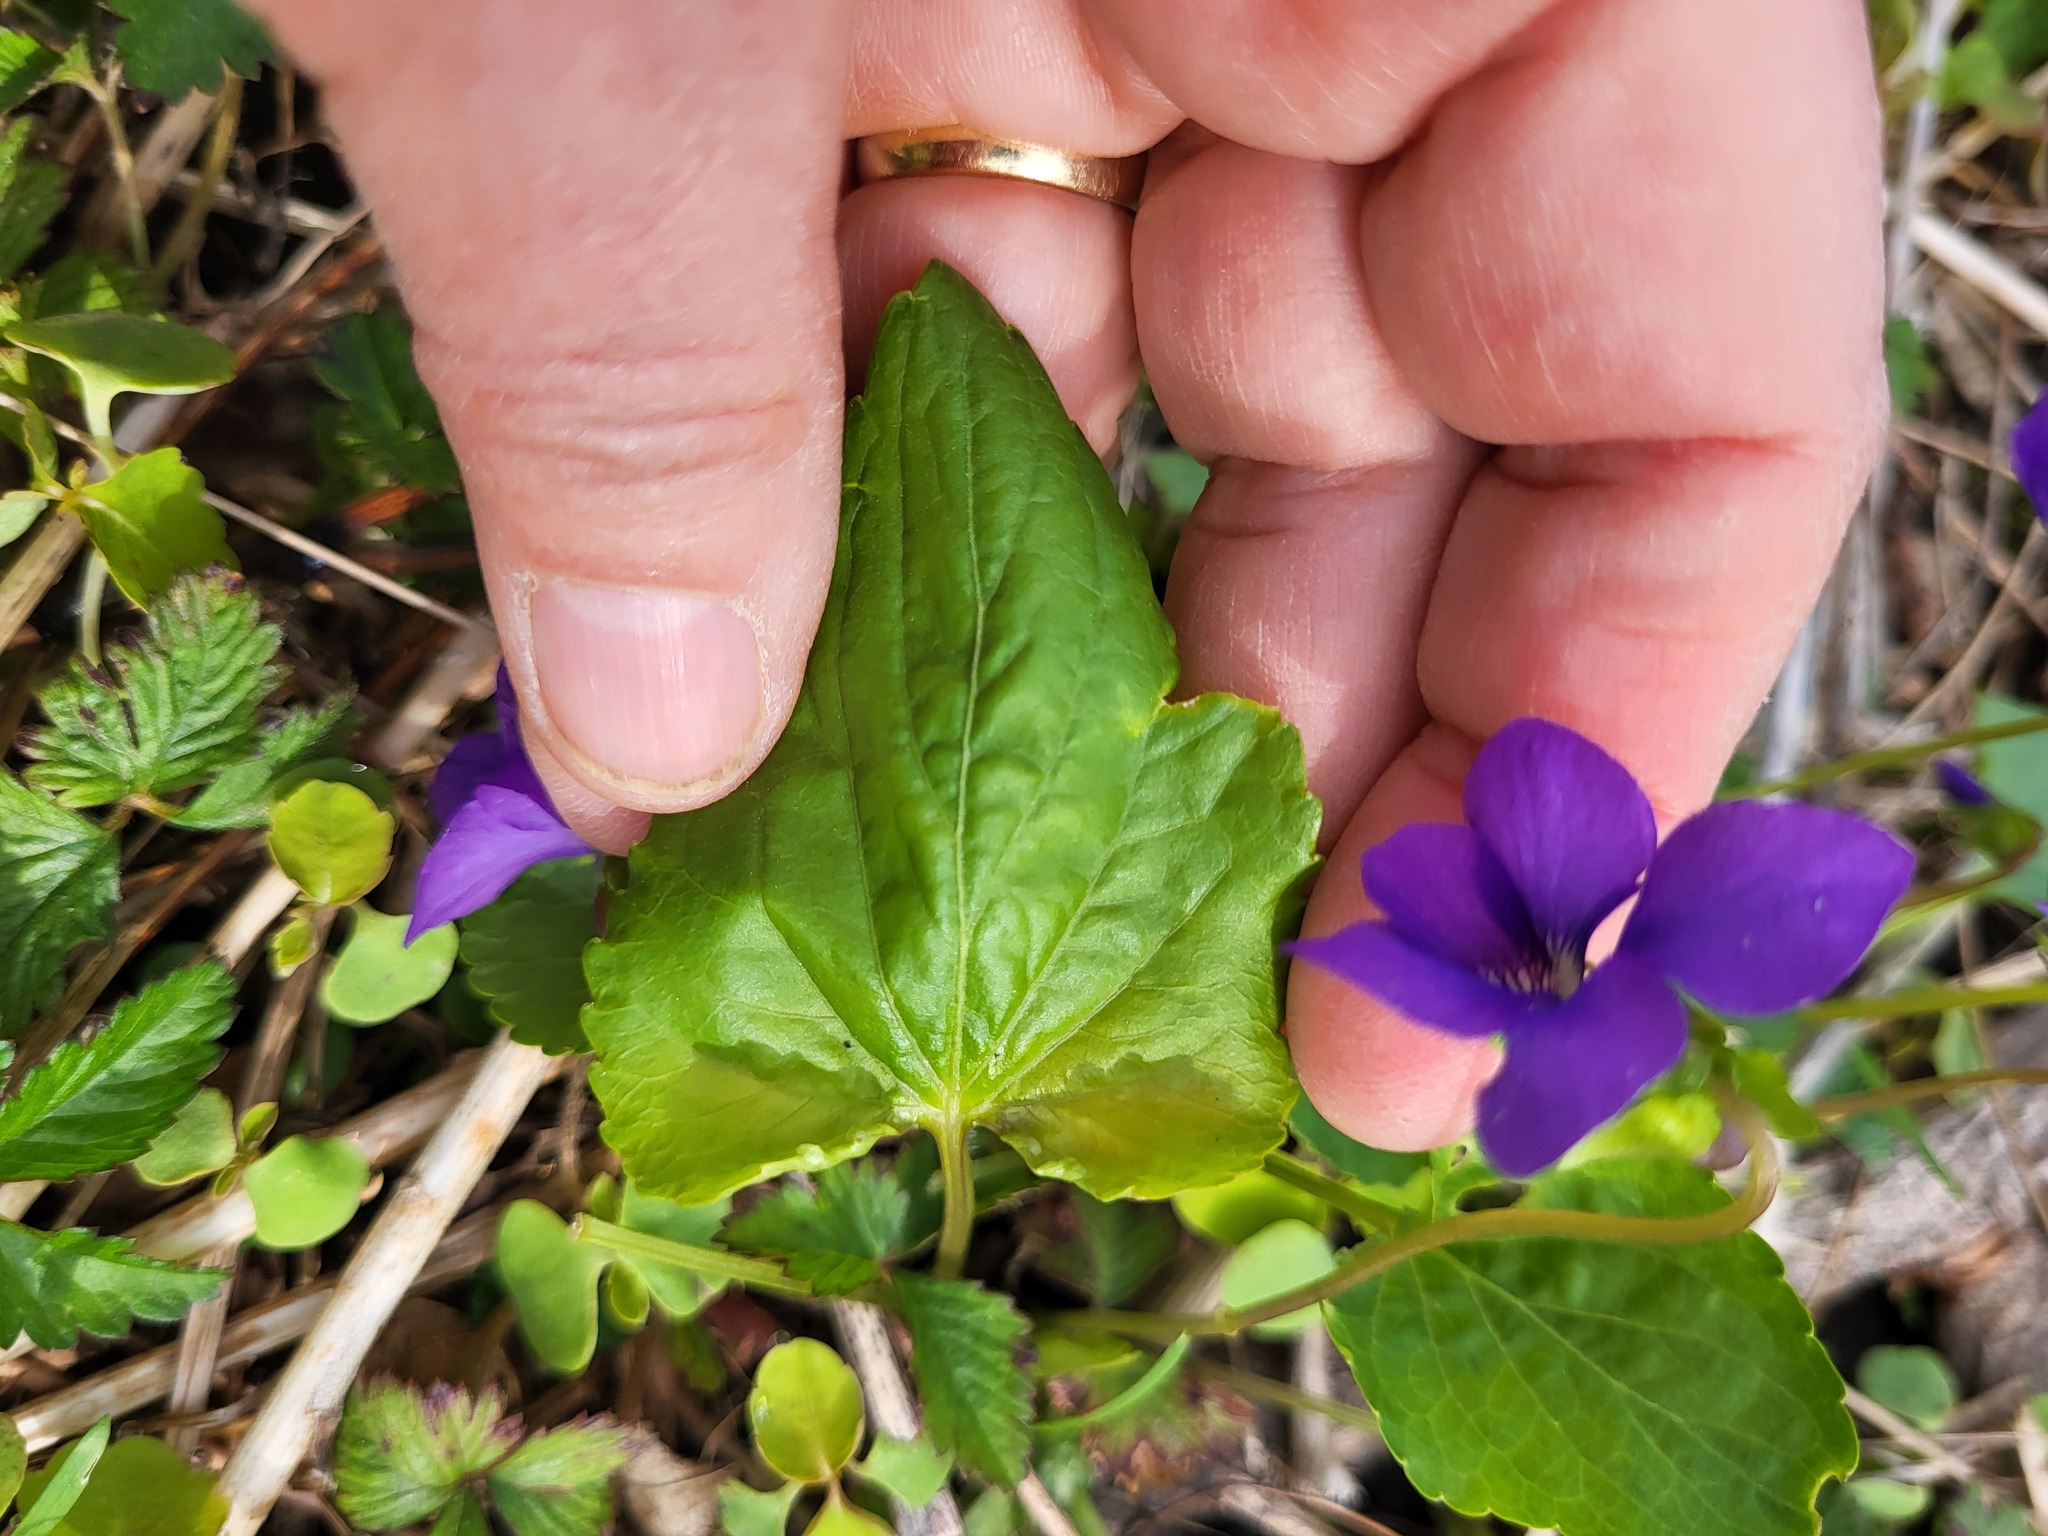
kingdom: Plantae
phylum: Tracheophyta
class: Magnoliopsida
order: Malpighiales
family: Violaceae
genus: Viola
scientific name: Viola sororia
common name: Dooryard violet
